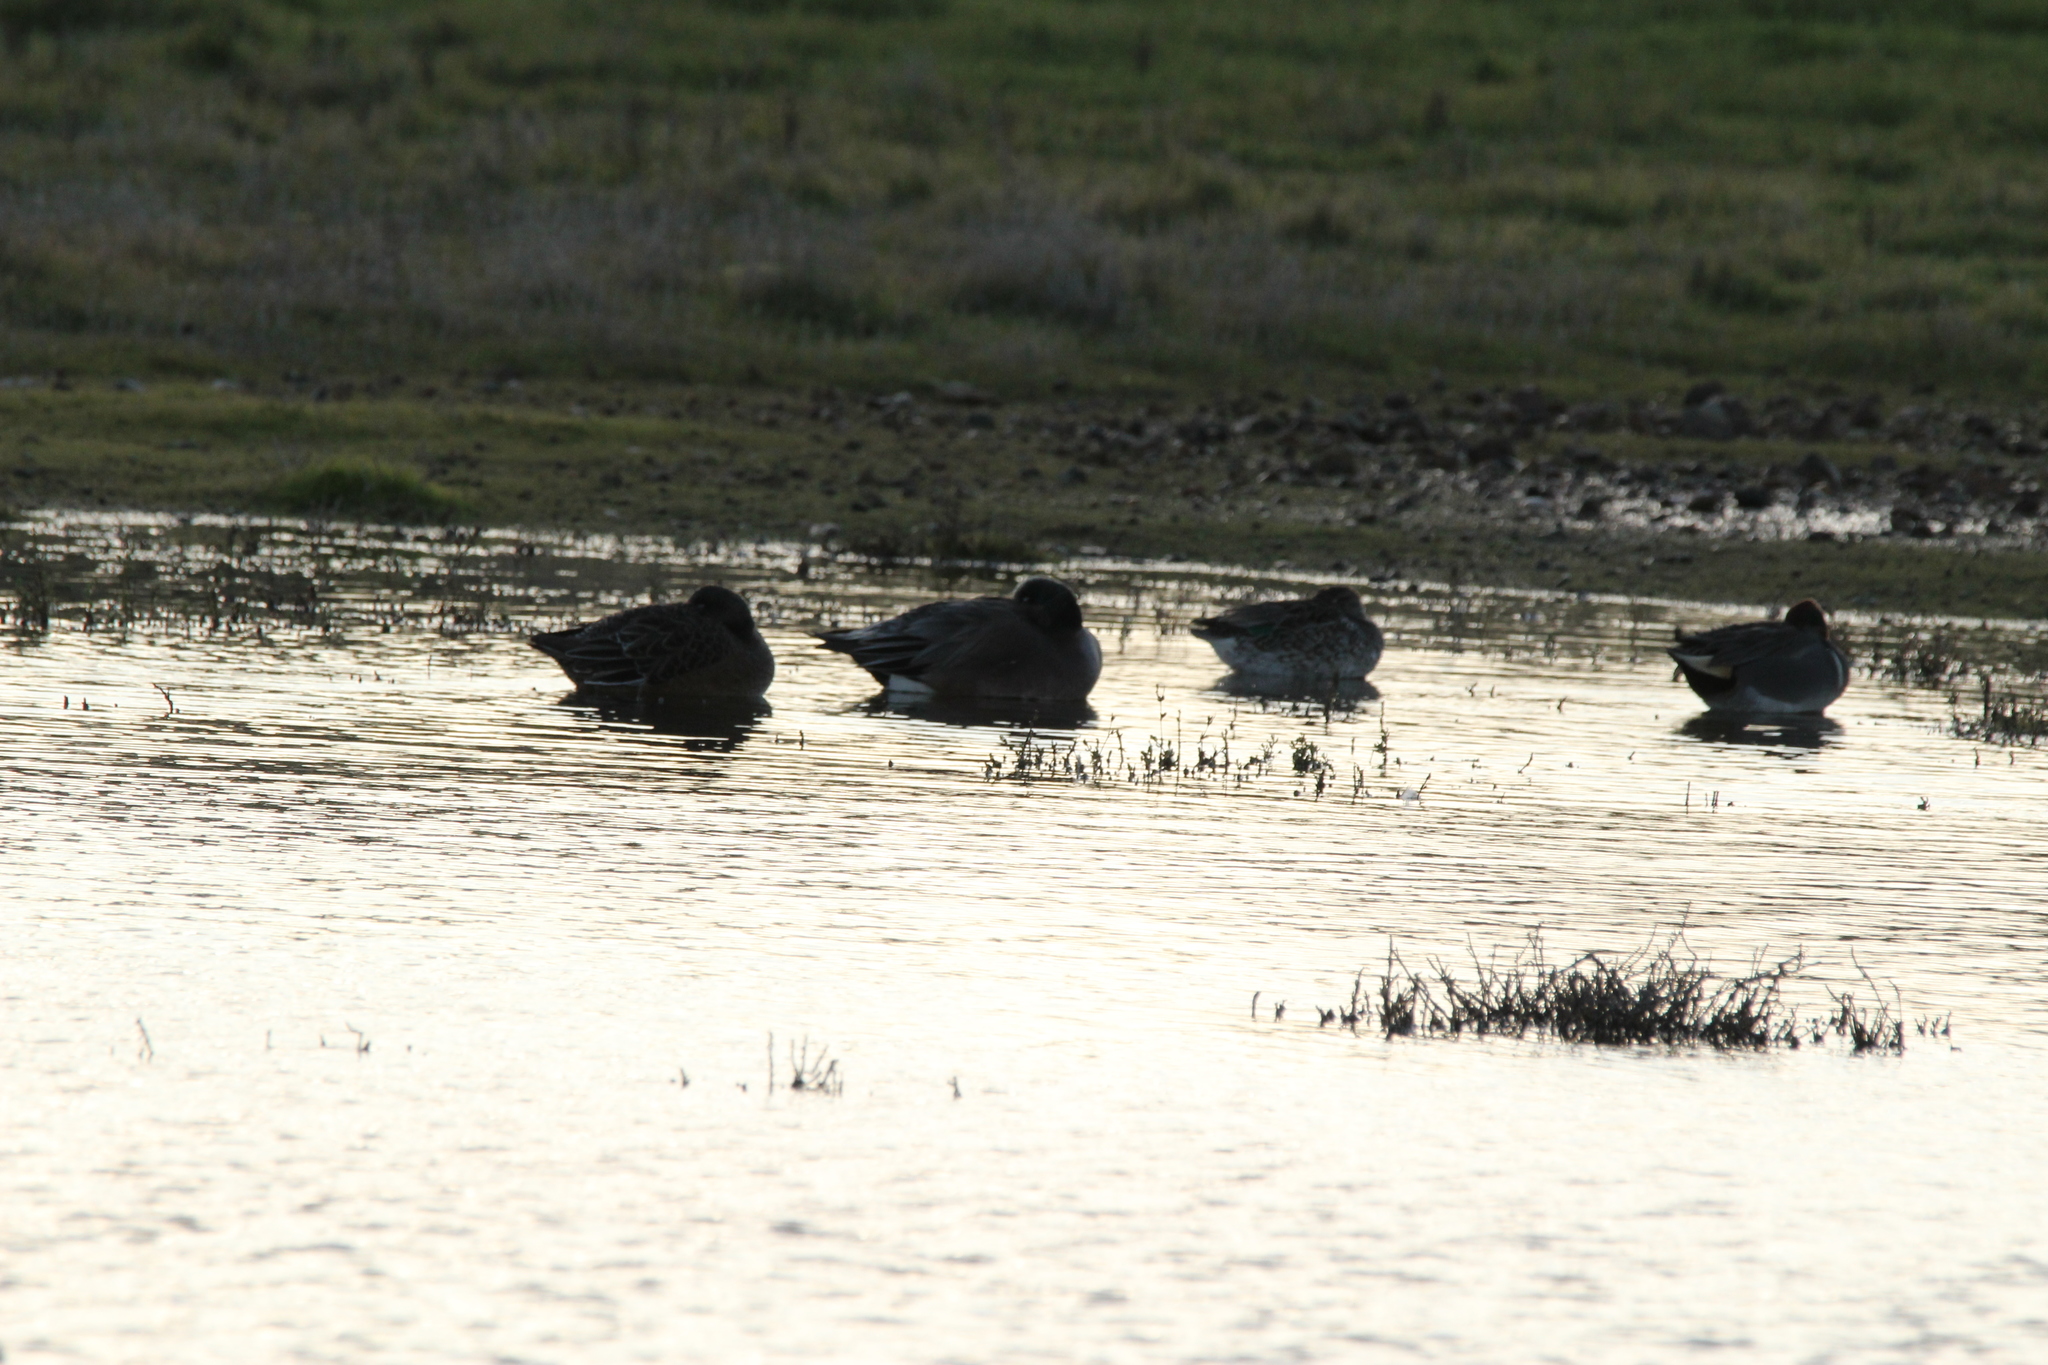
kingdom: Animalia
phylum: Chordata
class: Aves
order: Anseriformes
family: Anatidae
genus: Mareca
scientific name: Mareca americana
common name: American wigeon
